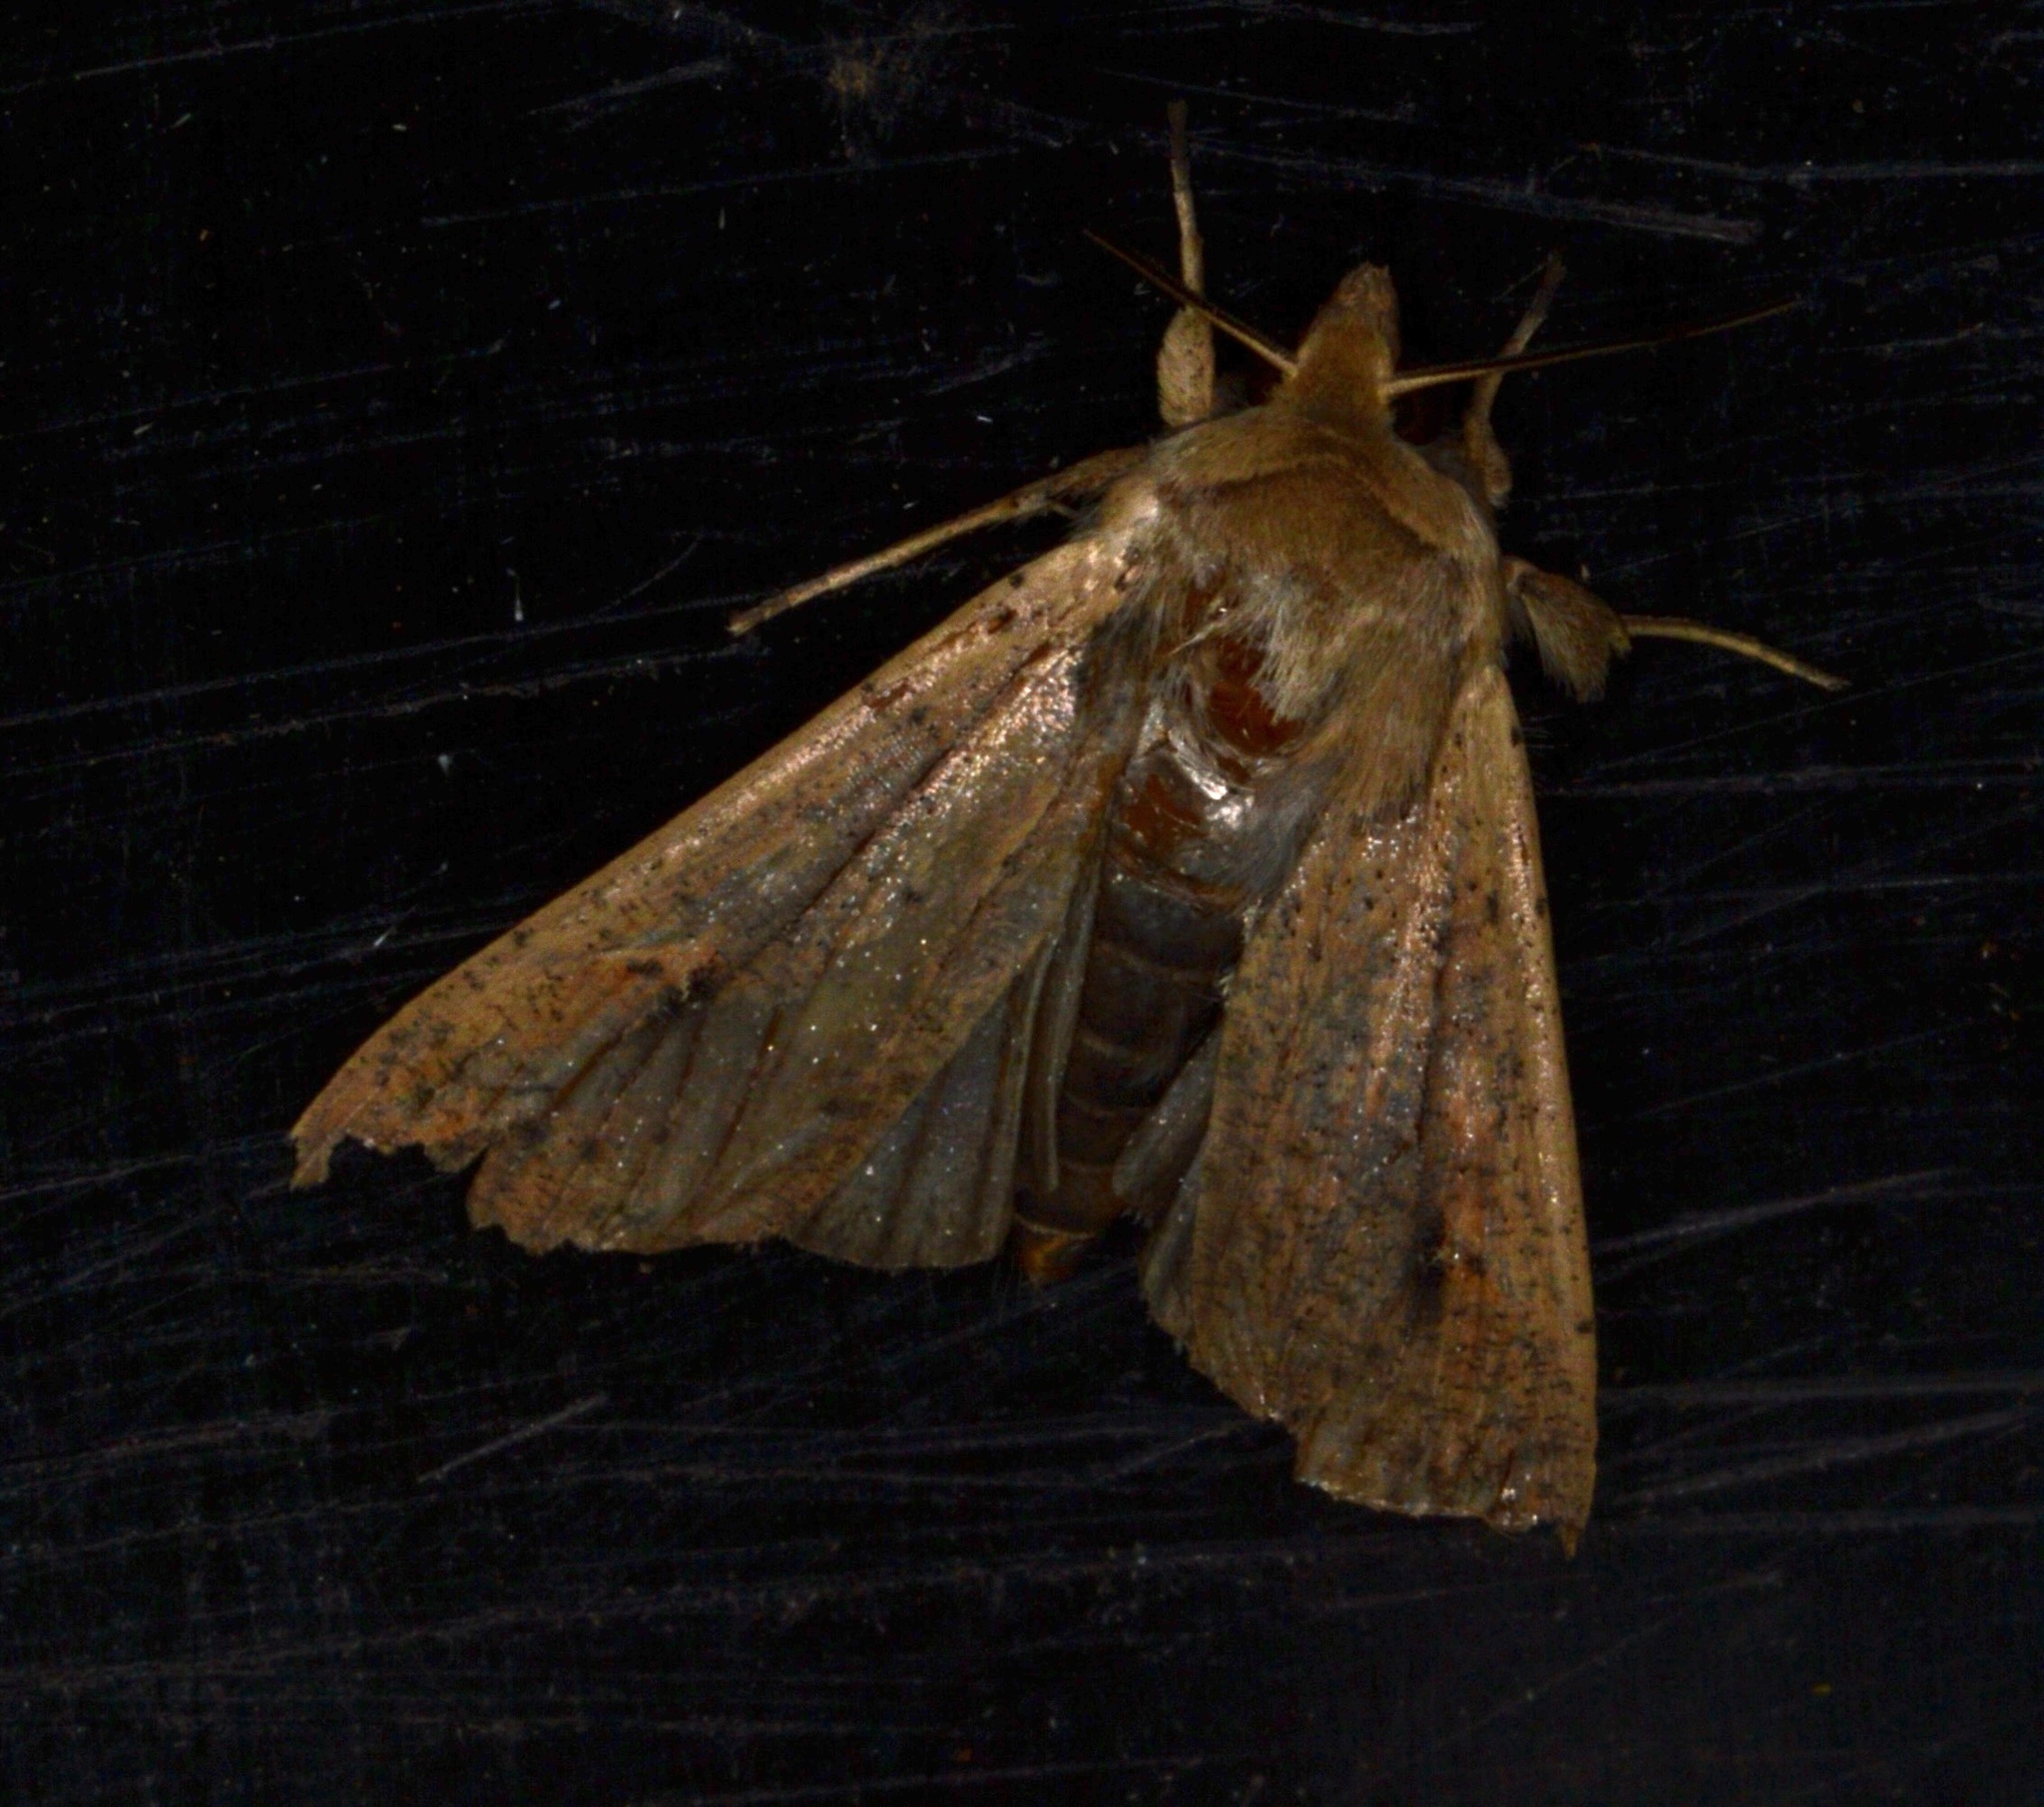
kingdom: Animalia
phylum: Arthropoda
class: Insecta
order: Lepidoptera
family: Noctuidae
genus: Mythimna
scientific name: Mythimna unipuncta
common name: White-speck
